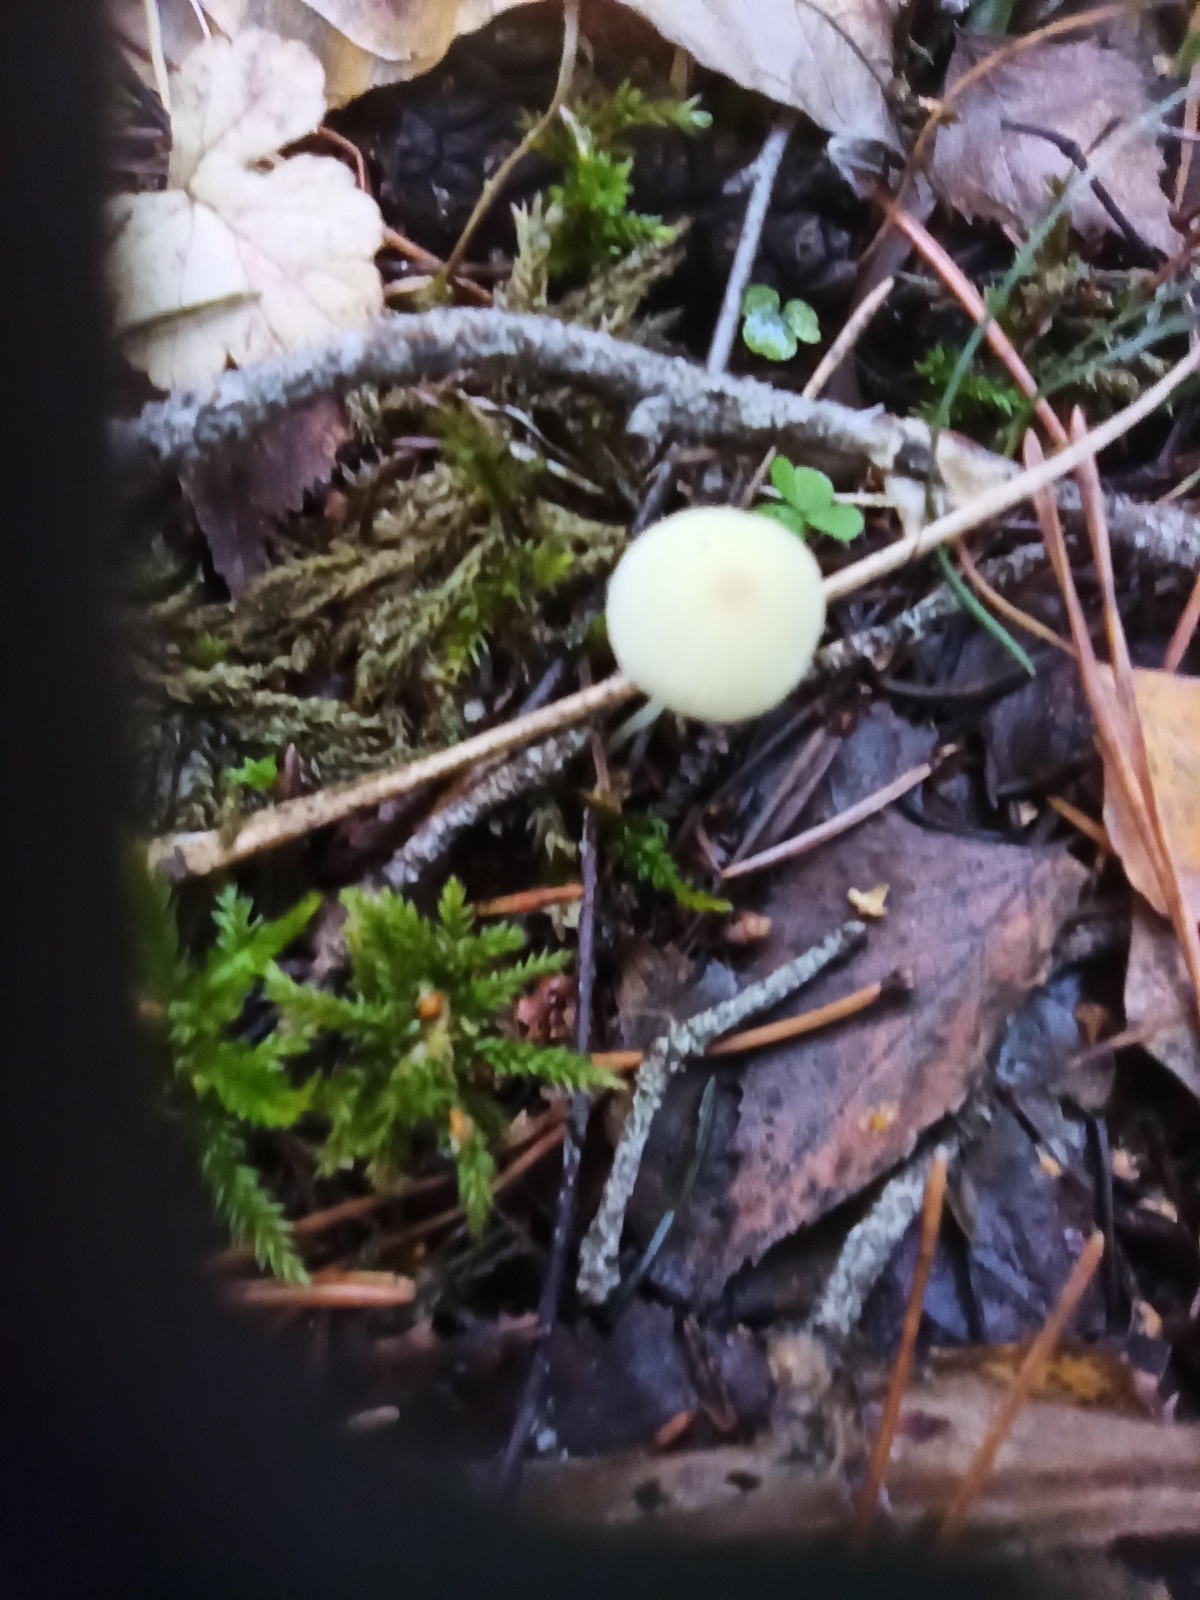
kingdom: Fungi
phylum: Basidiomycota
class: Agaricomycetes
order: Agaricales
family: Mycenaceae
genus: Mycena
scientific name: Mycena epipterygia
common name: Yellowleg bonnet
